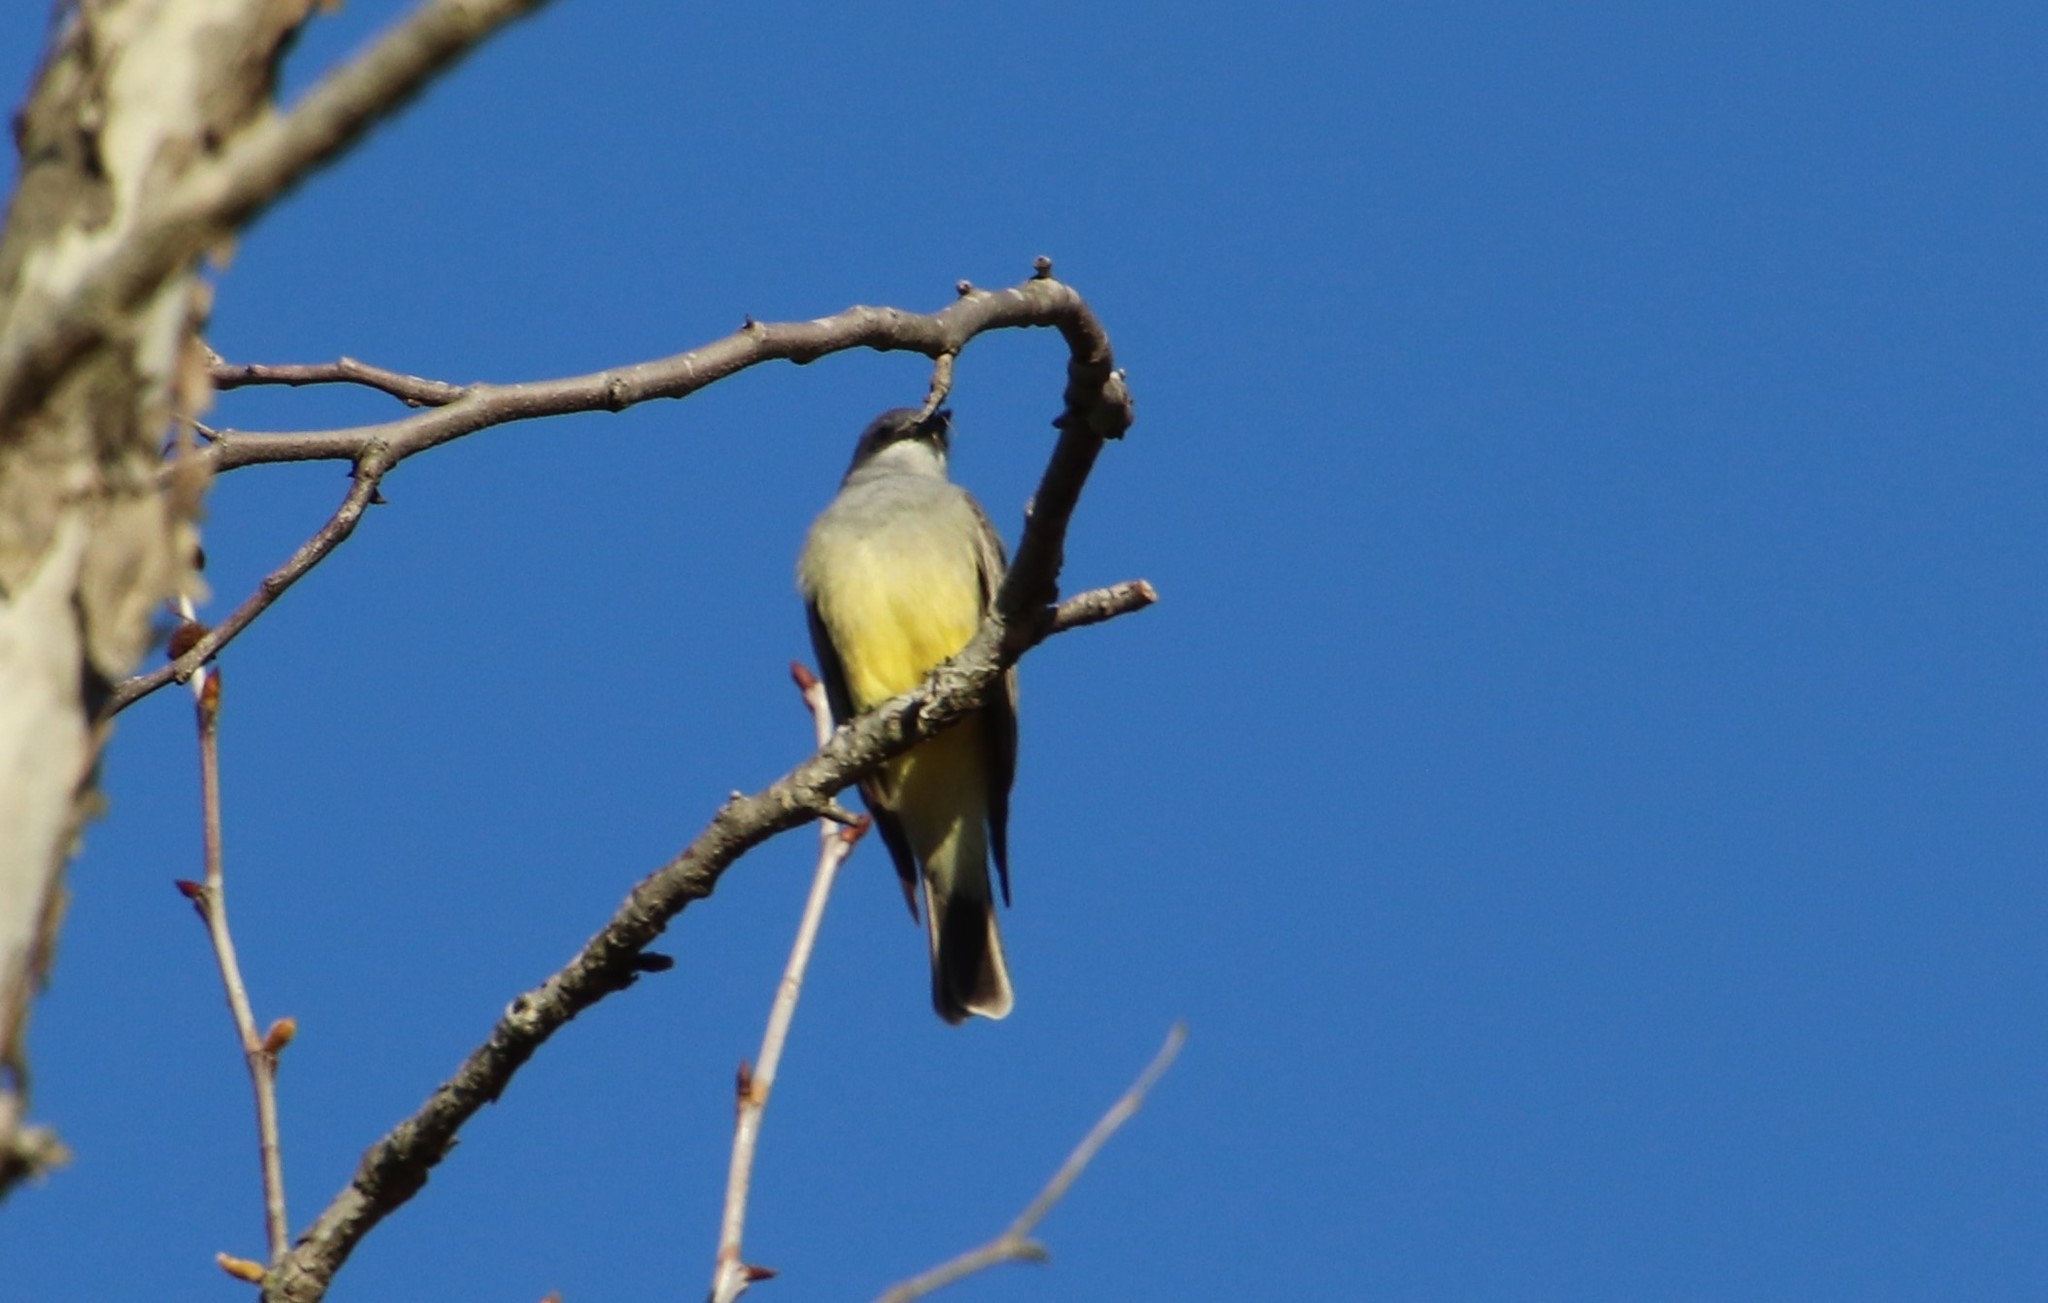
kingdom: Animalia
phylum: Chordata
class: Aves
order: Passeriformes
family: Tyrannidae
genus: Tyrannus
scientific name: Tyrannus vociferans
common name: Cassin's kingbird
